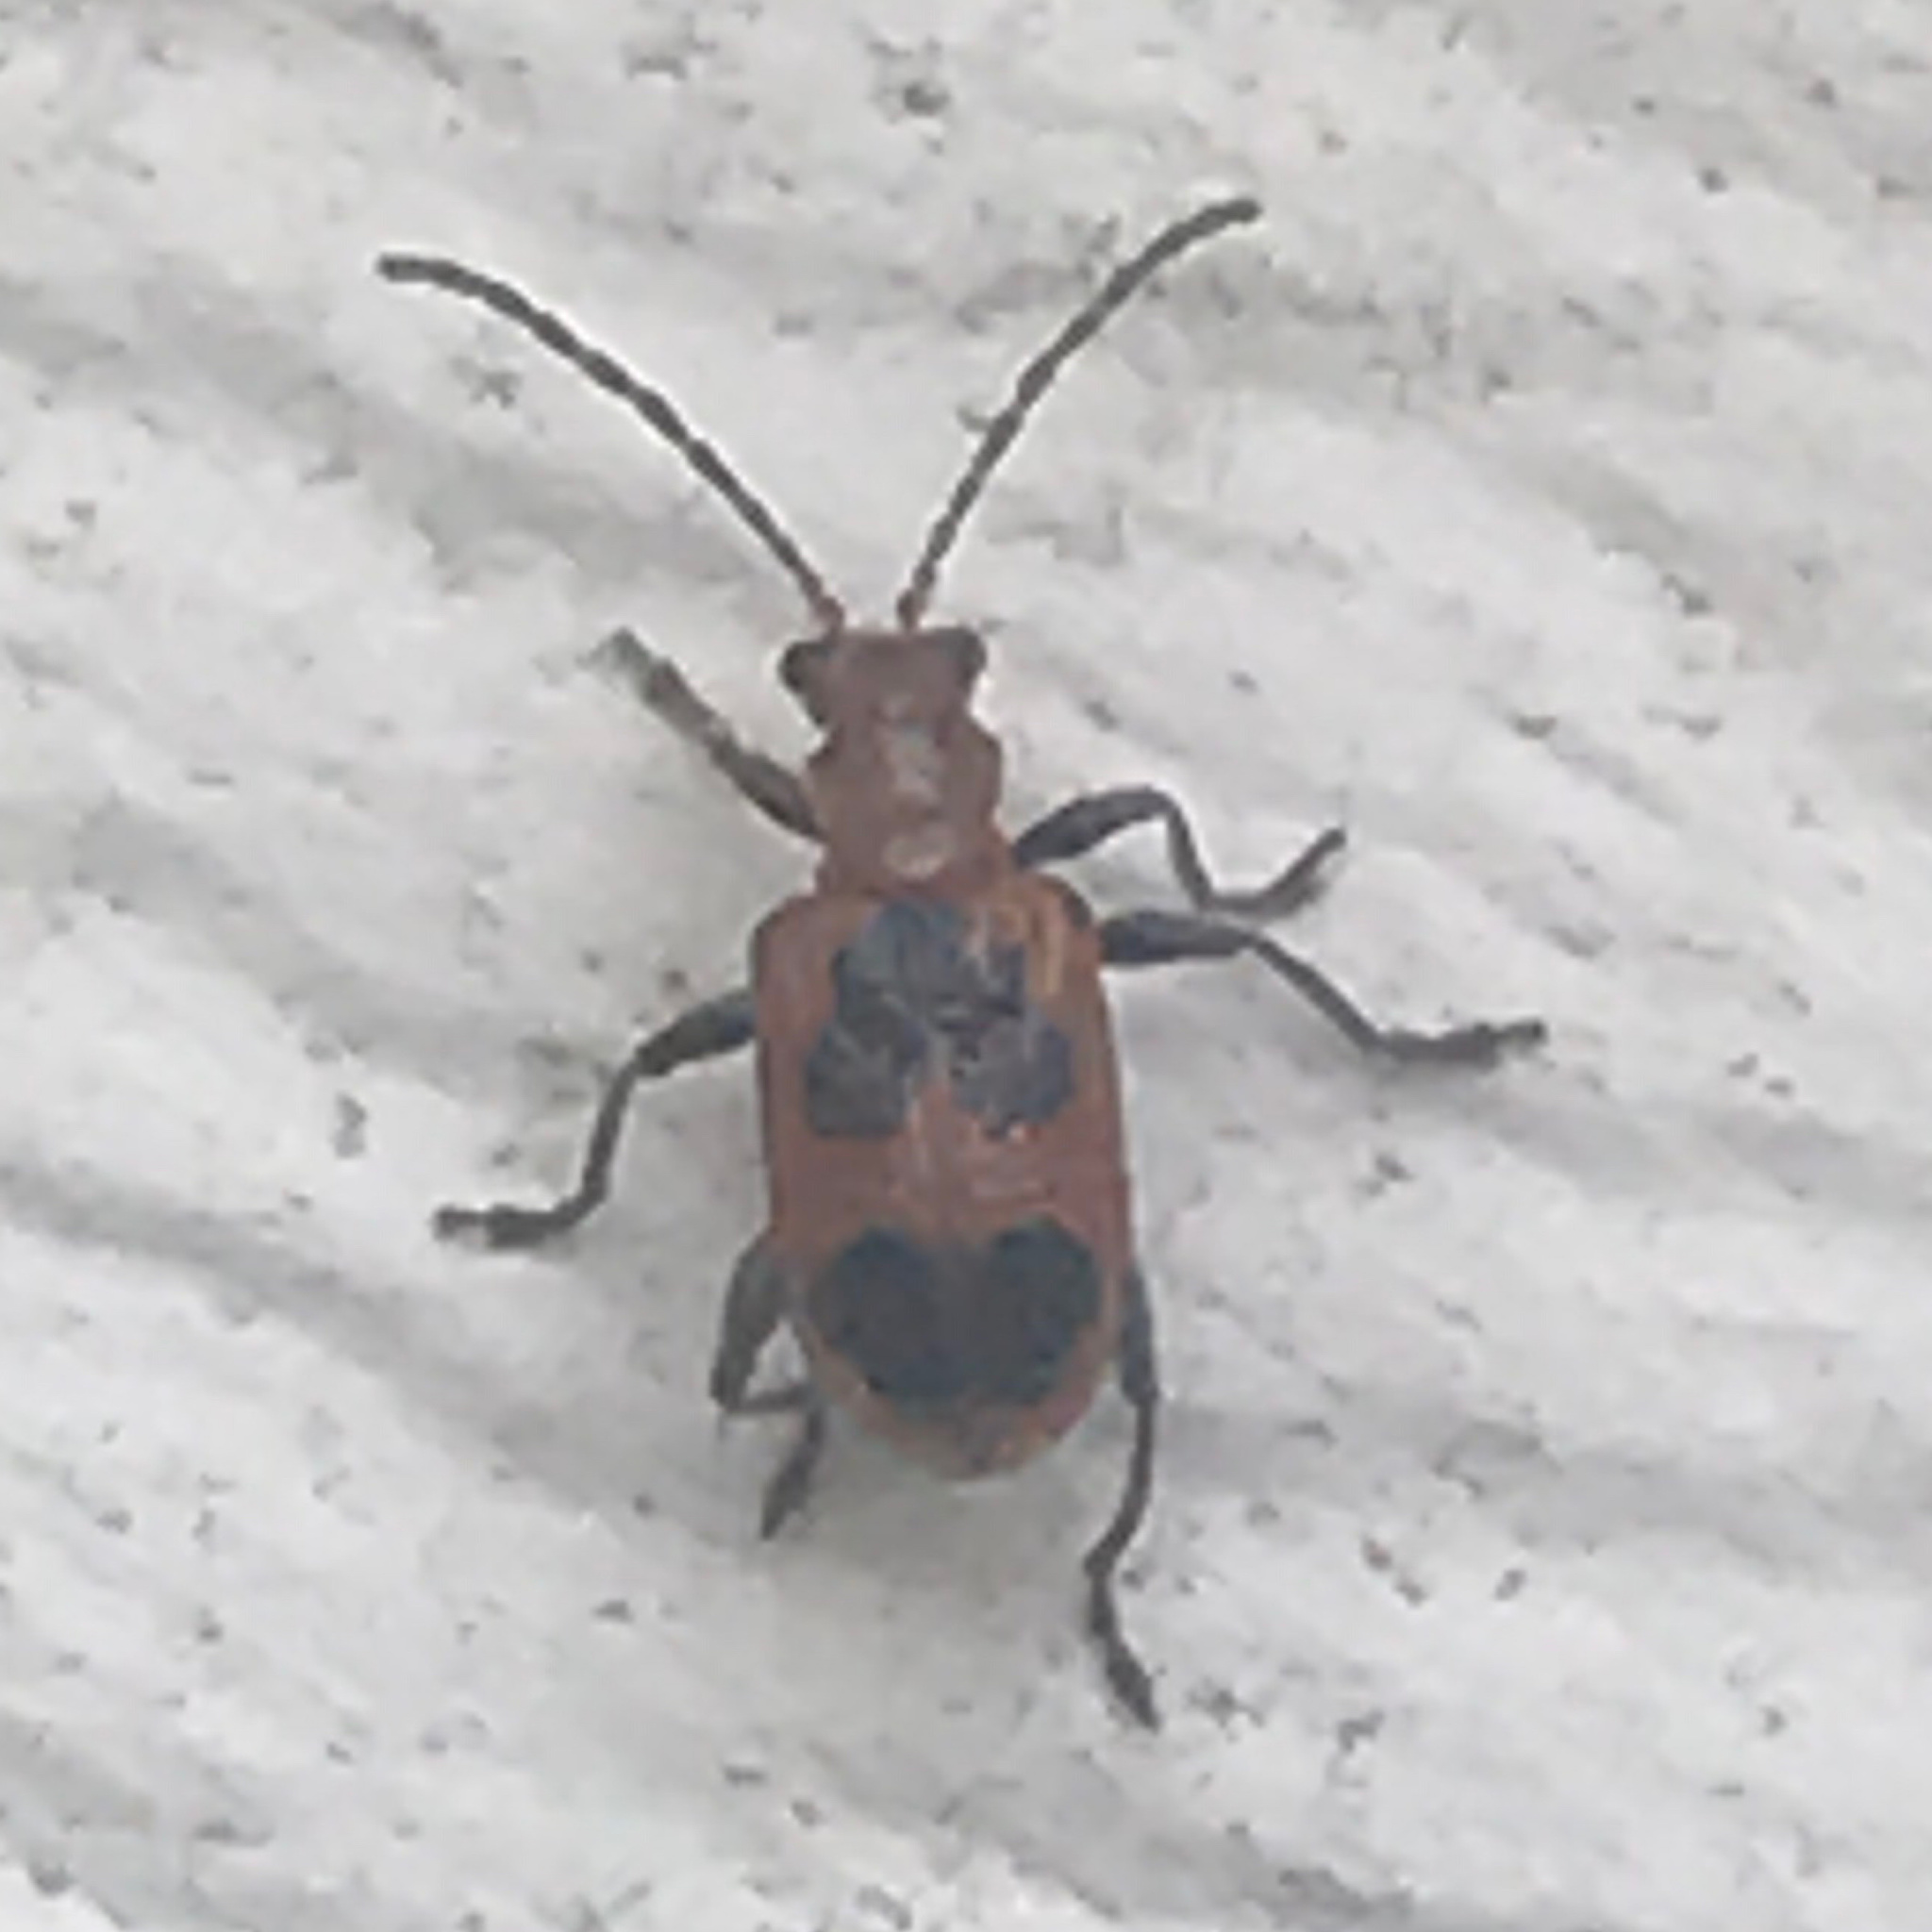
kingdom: Animalia
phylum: Arthropoda
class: Insecta
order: Coleoptera
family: Chrysomelidae
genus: Neolema
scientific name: Neolema cordata
